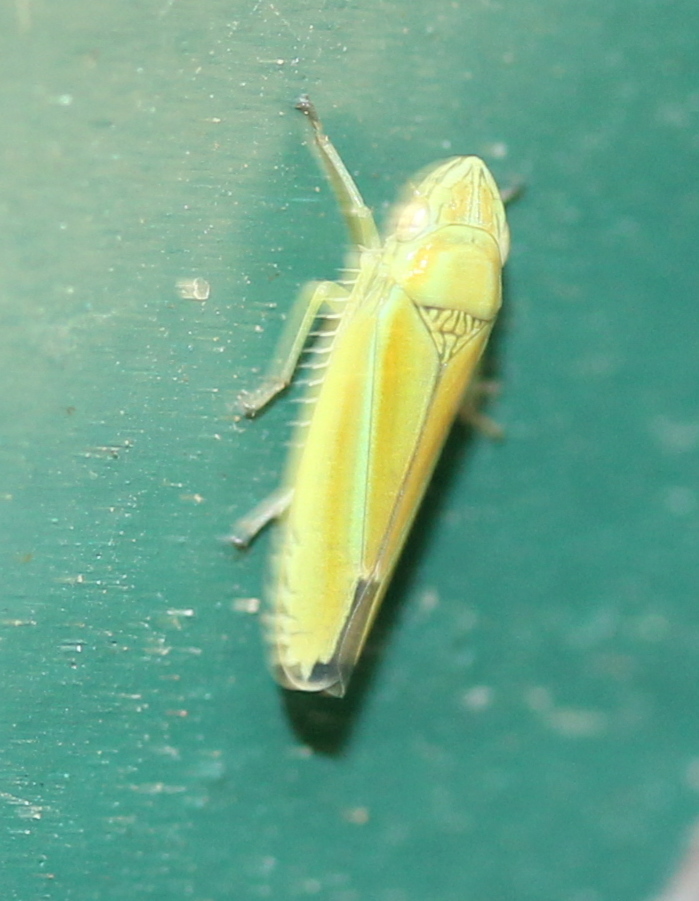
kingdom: Animalia
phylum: Arthropoda
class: Insecta
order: Hemiptera
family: Cicadellidae
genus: Graphocephala
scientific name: Graphocephala versuta
